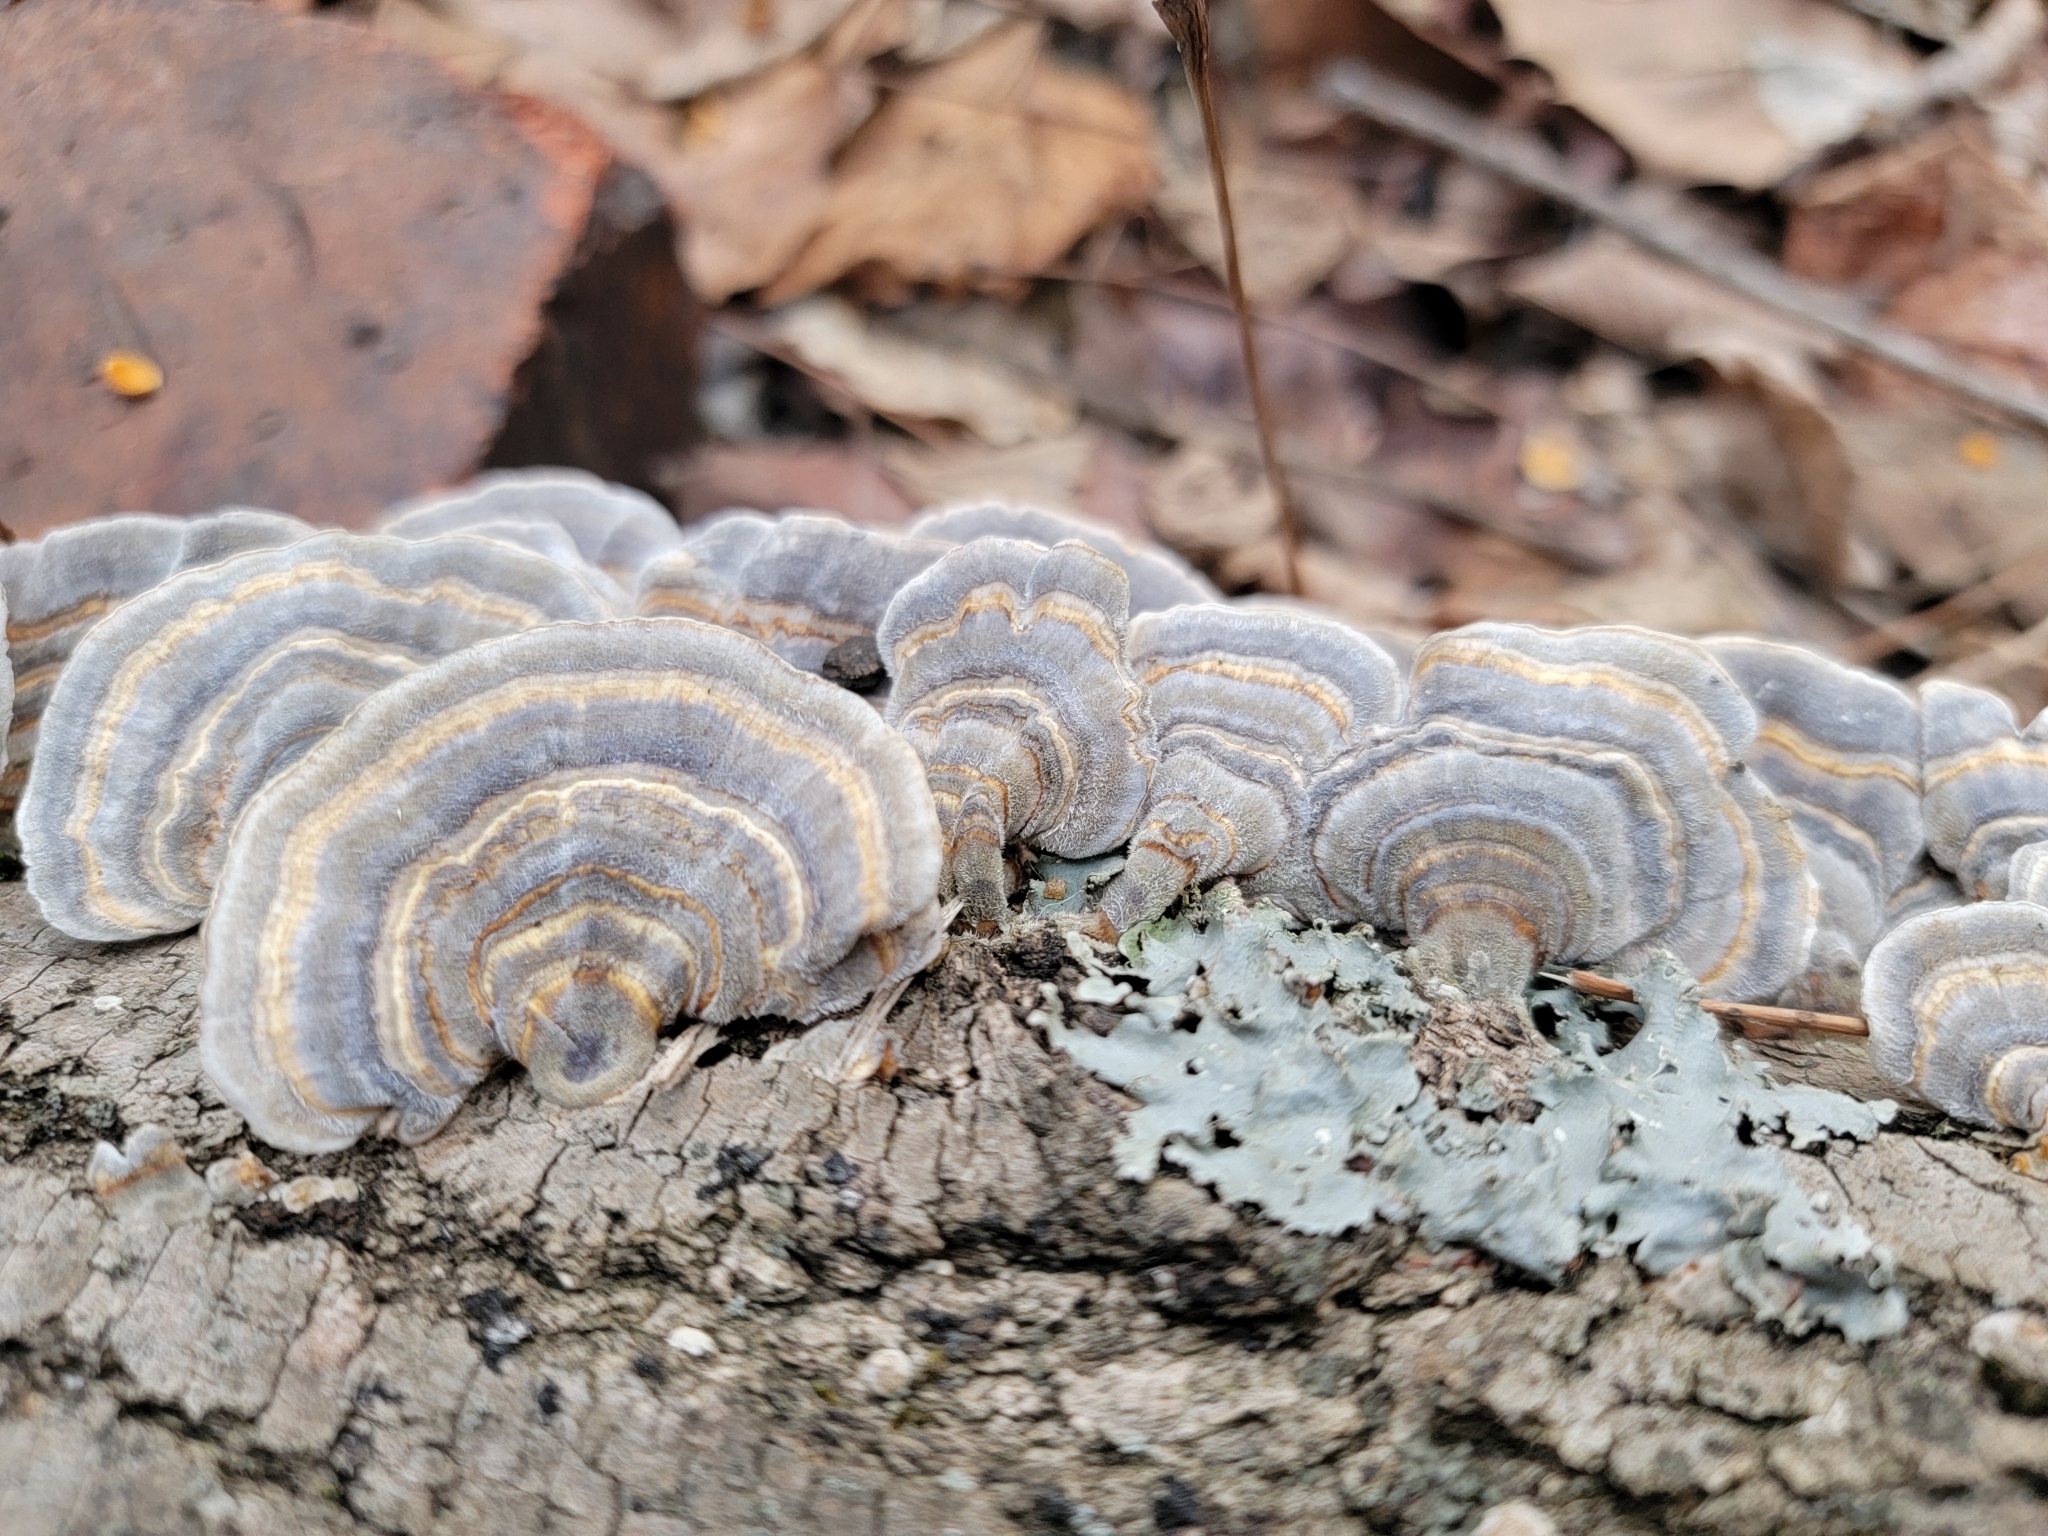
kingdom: Fungi
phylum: Basidiomycota
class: Agaricomycetes
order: Polyporales
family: Polyporaceae
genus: Trametes
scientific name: Trametes versicolor
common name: Turkeytail
